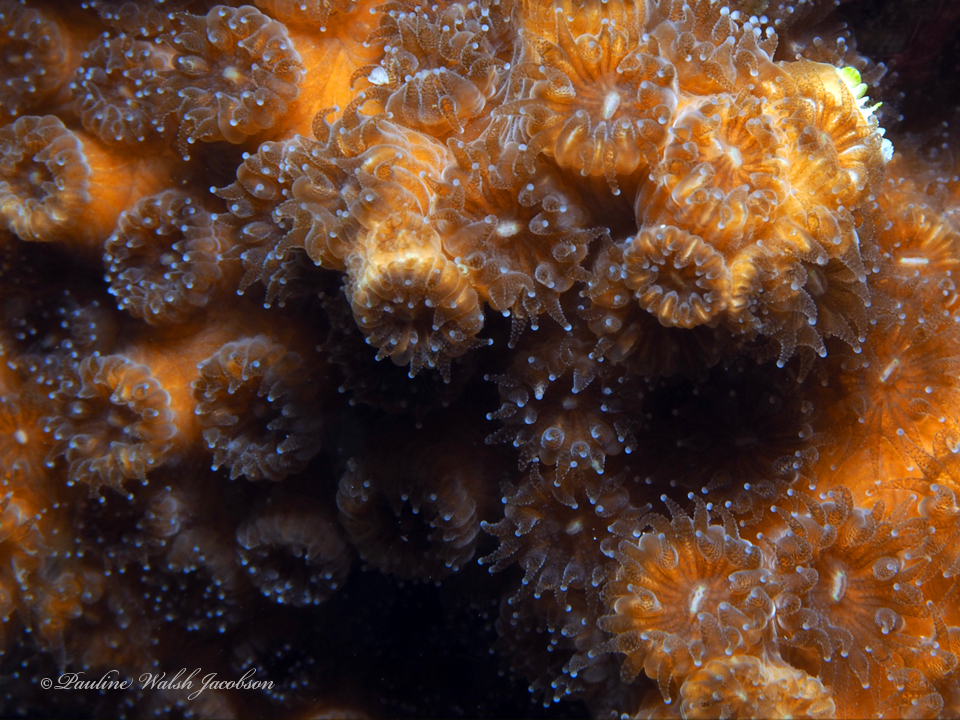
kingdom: Animalia
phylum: Cnidaria
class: Anthozoa
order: Scleractinia
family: Cladocoridae
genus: Cladocora
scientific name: Cladocora arbuscula
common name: Tube coral
